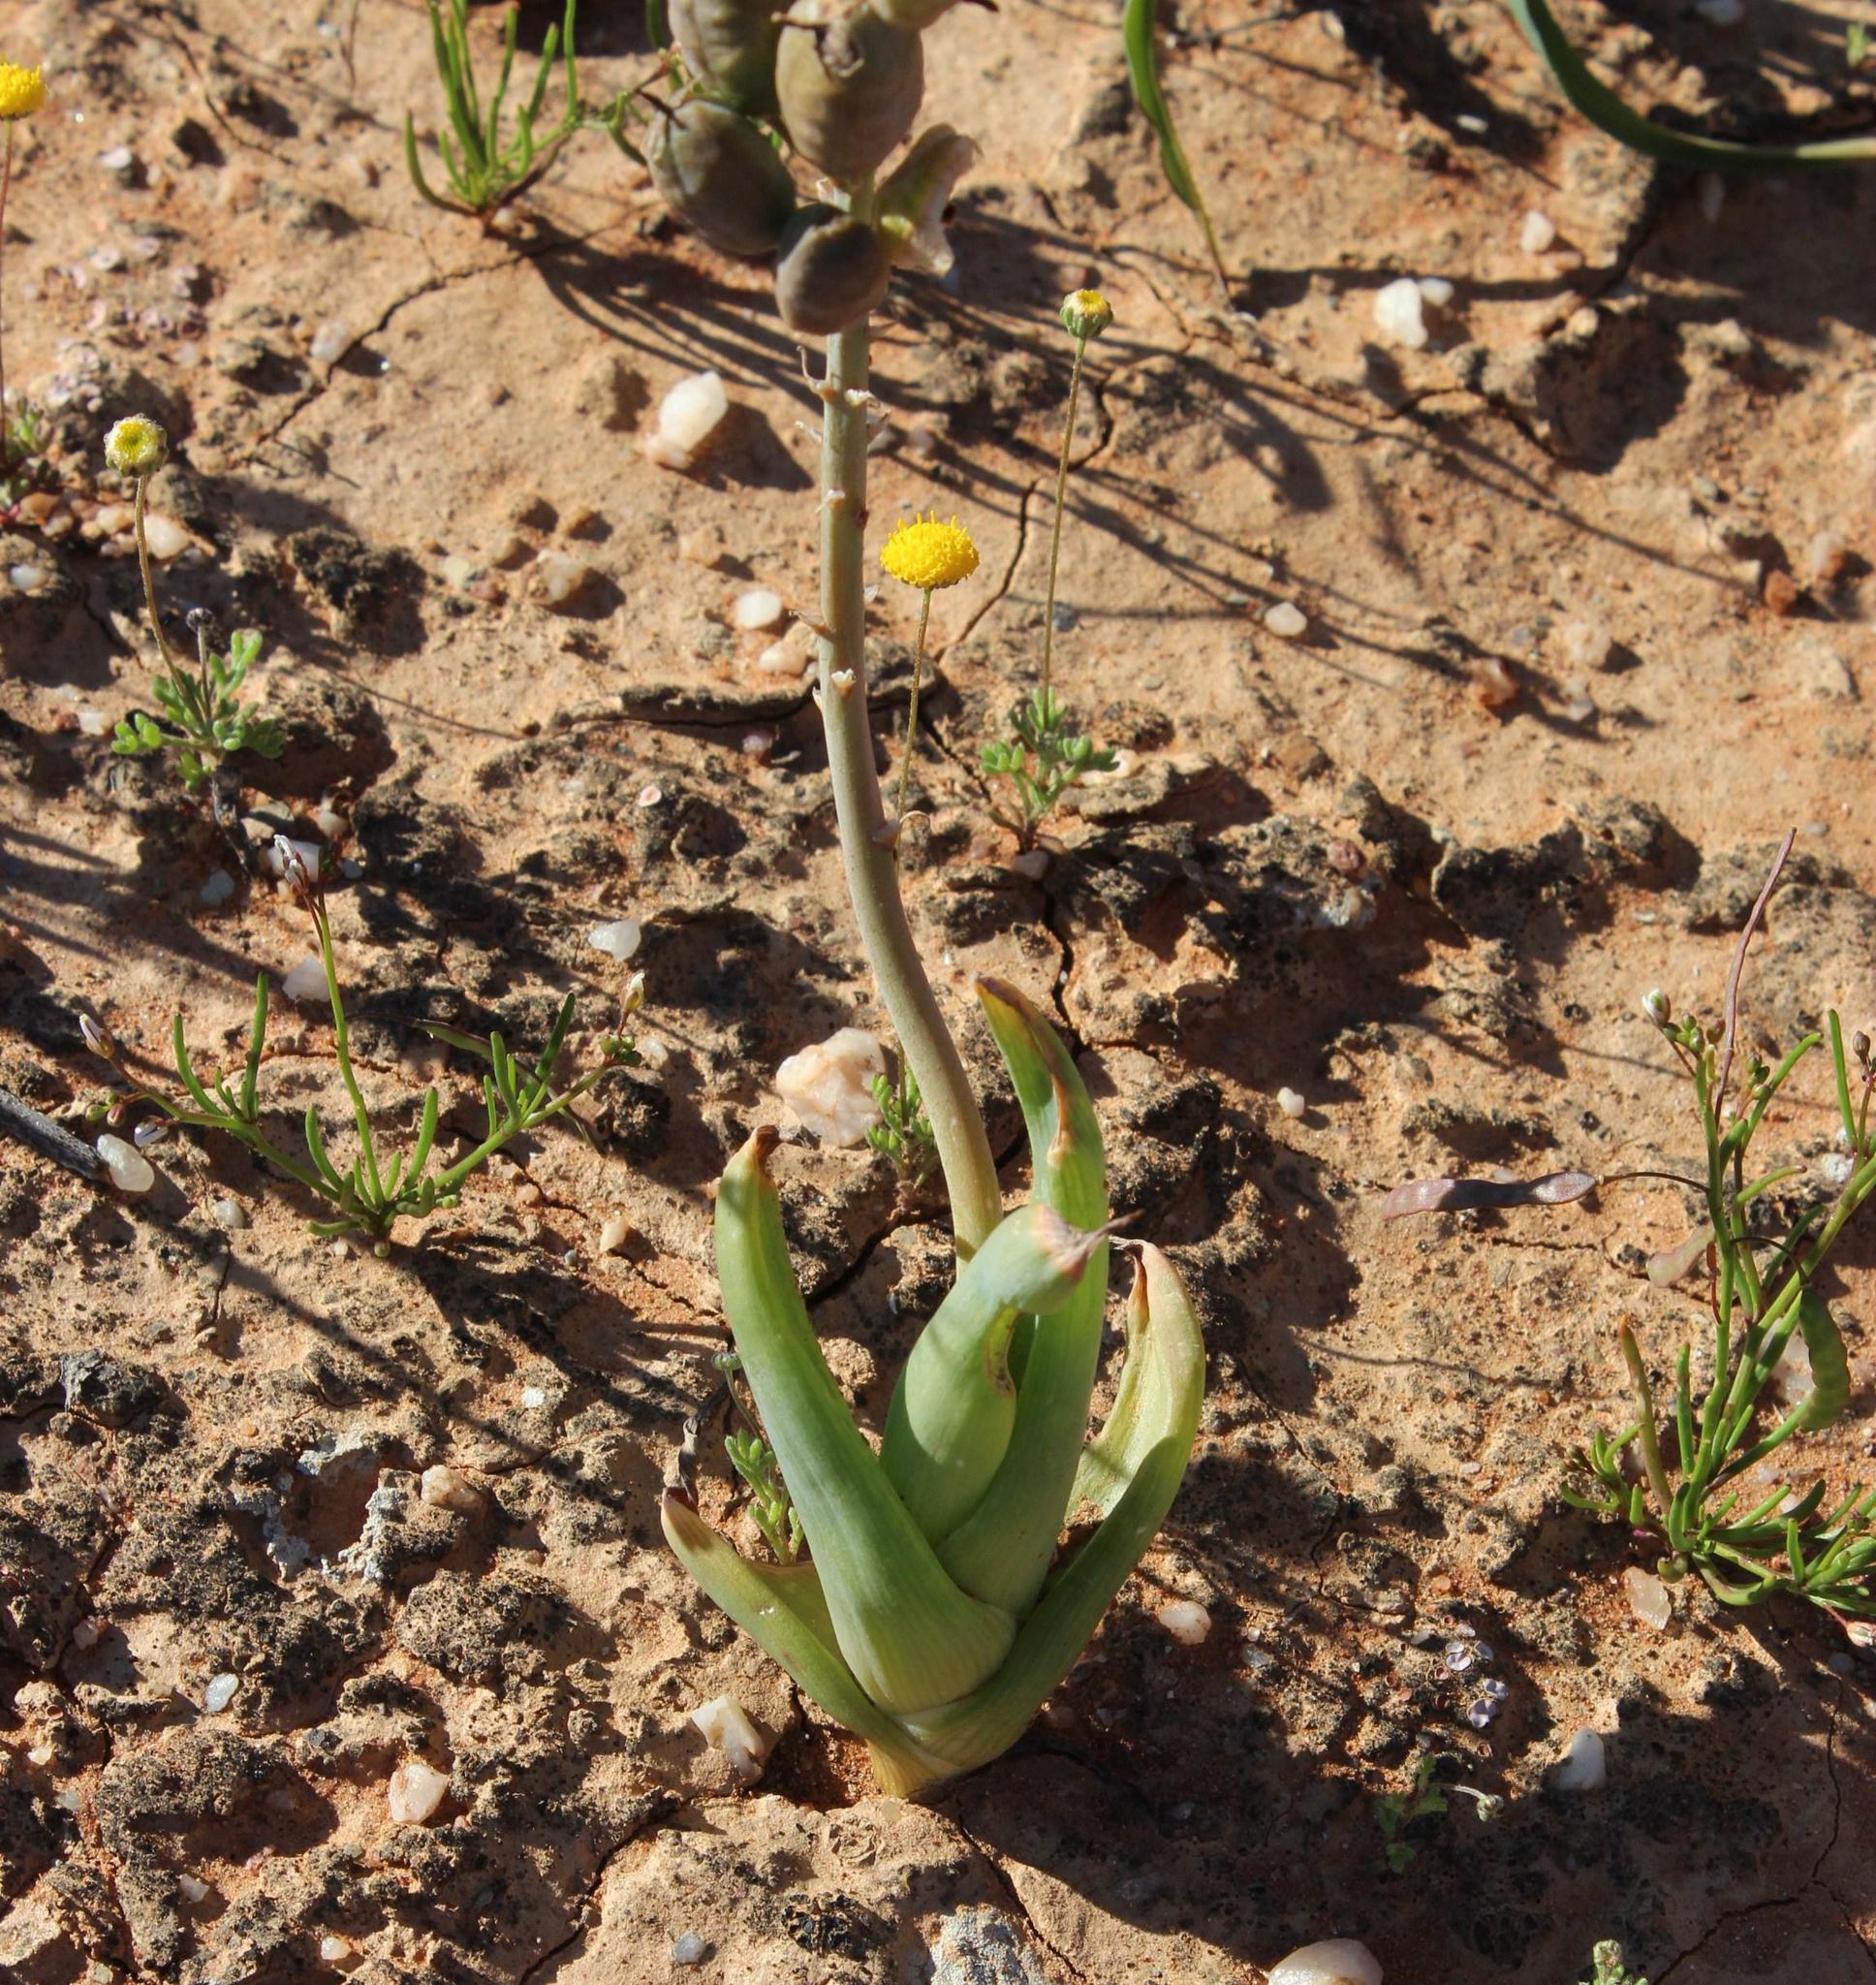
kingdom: Plantae
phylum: Tracheophyta
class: Liliopsida
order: Asparagales
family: Asphodelaceae
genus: Bulbine
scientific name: Bulbine praemorsa
